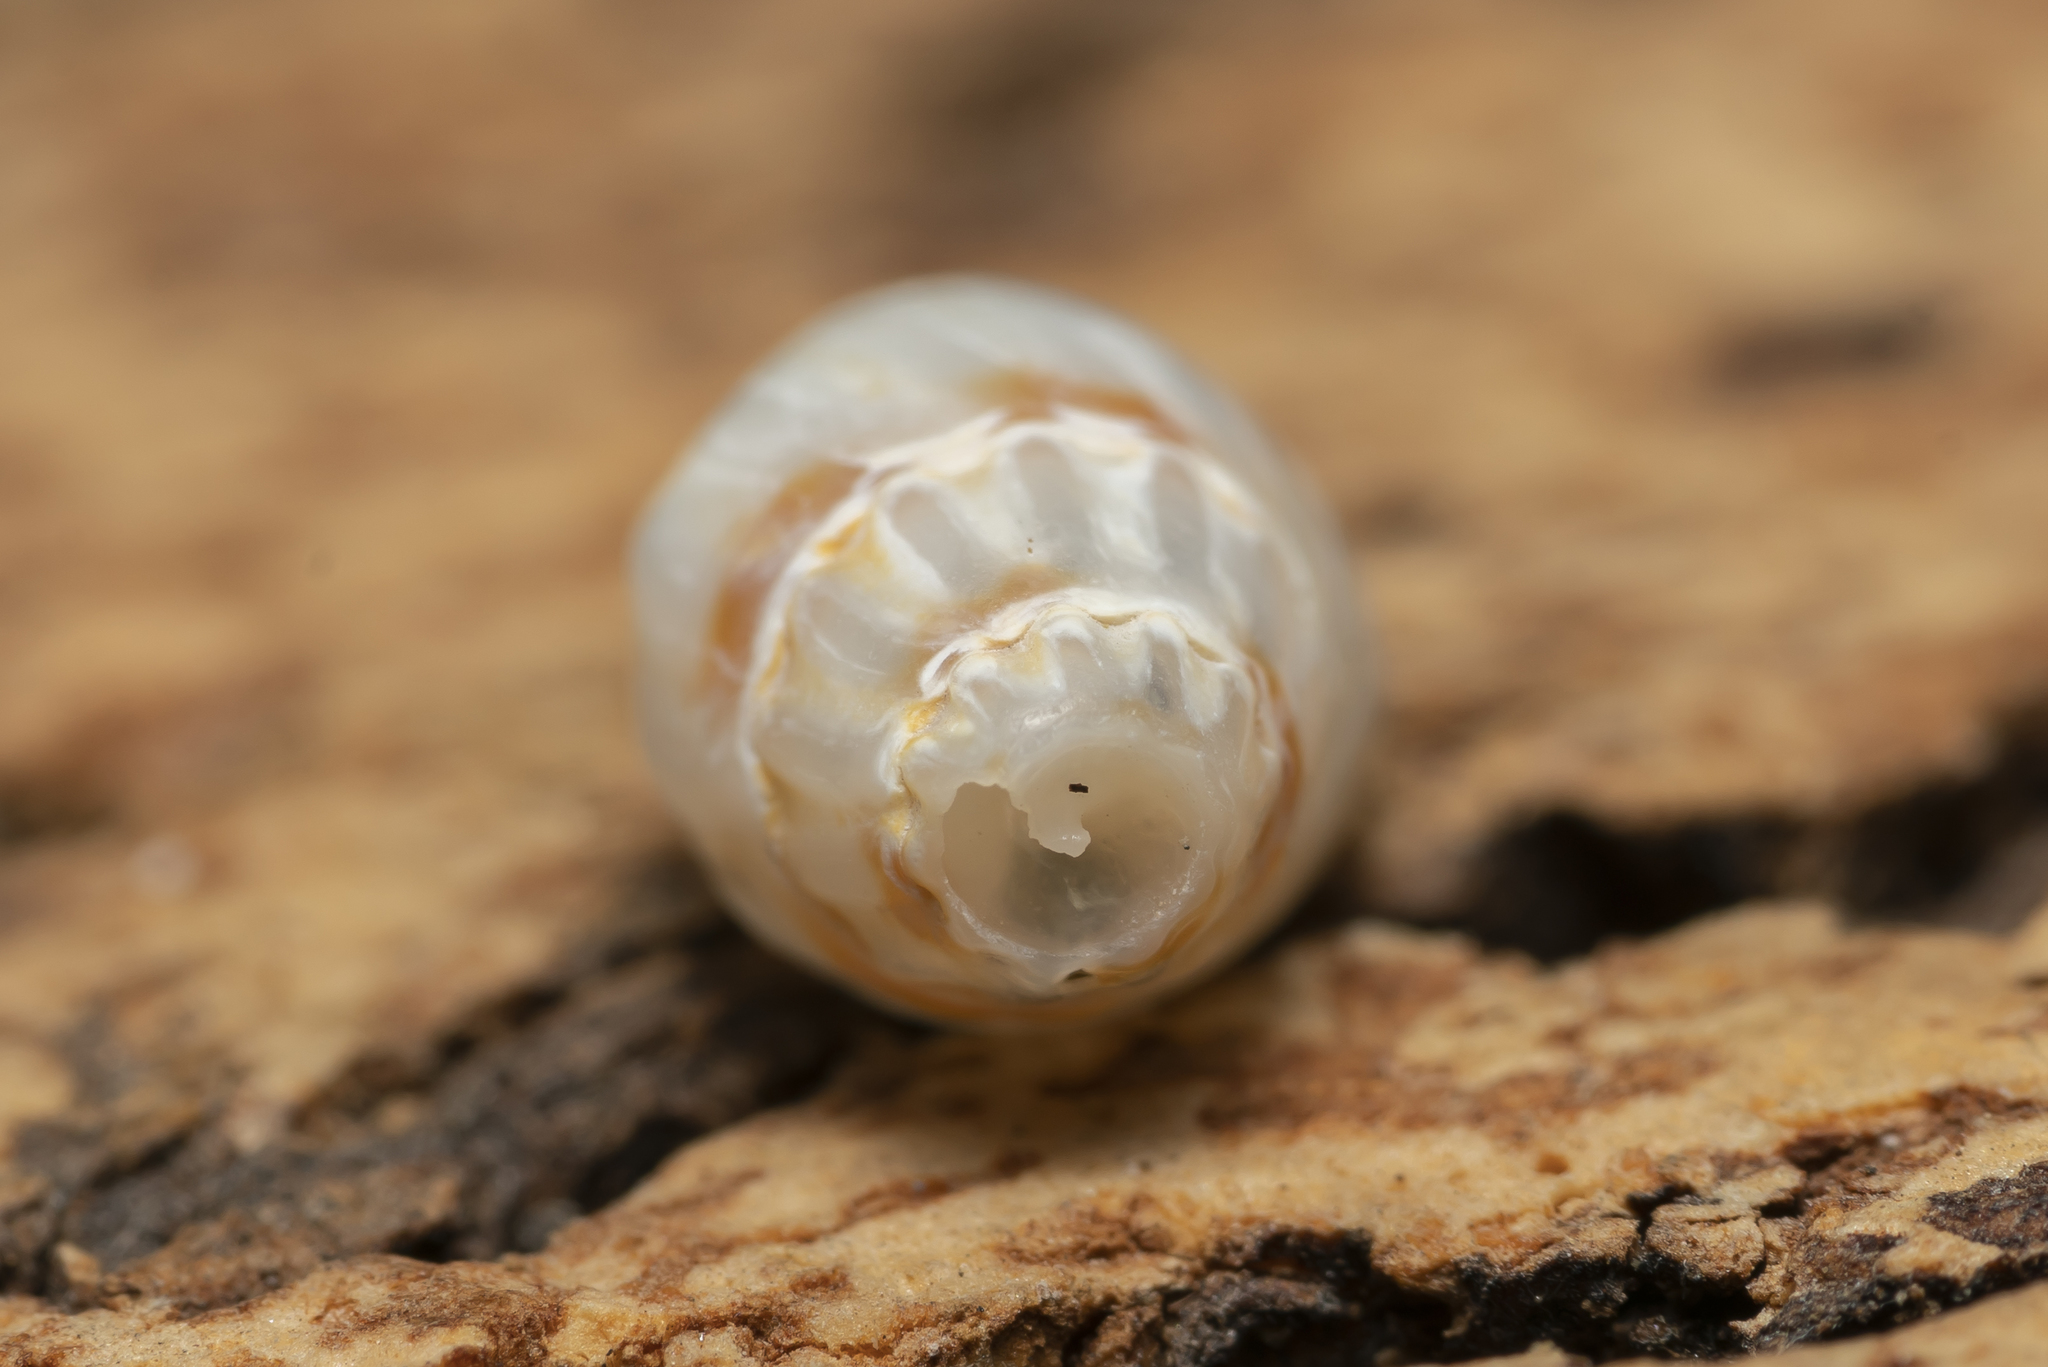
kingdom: Animalia
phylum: Mollusca
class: Gastropoda
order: Neogastropoda
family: Nassariidae
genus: Tritia
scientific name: Tritia reticulata
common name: Netted dog whelk
